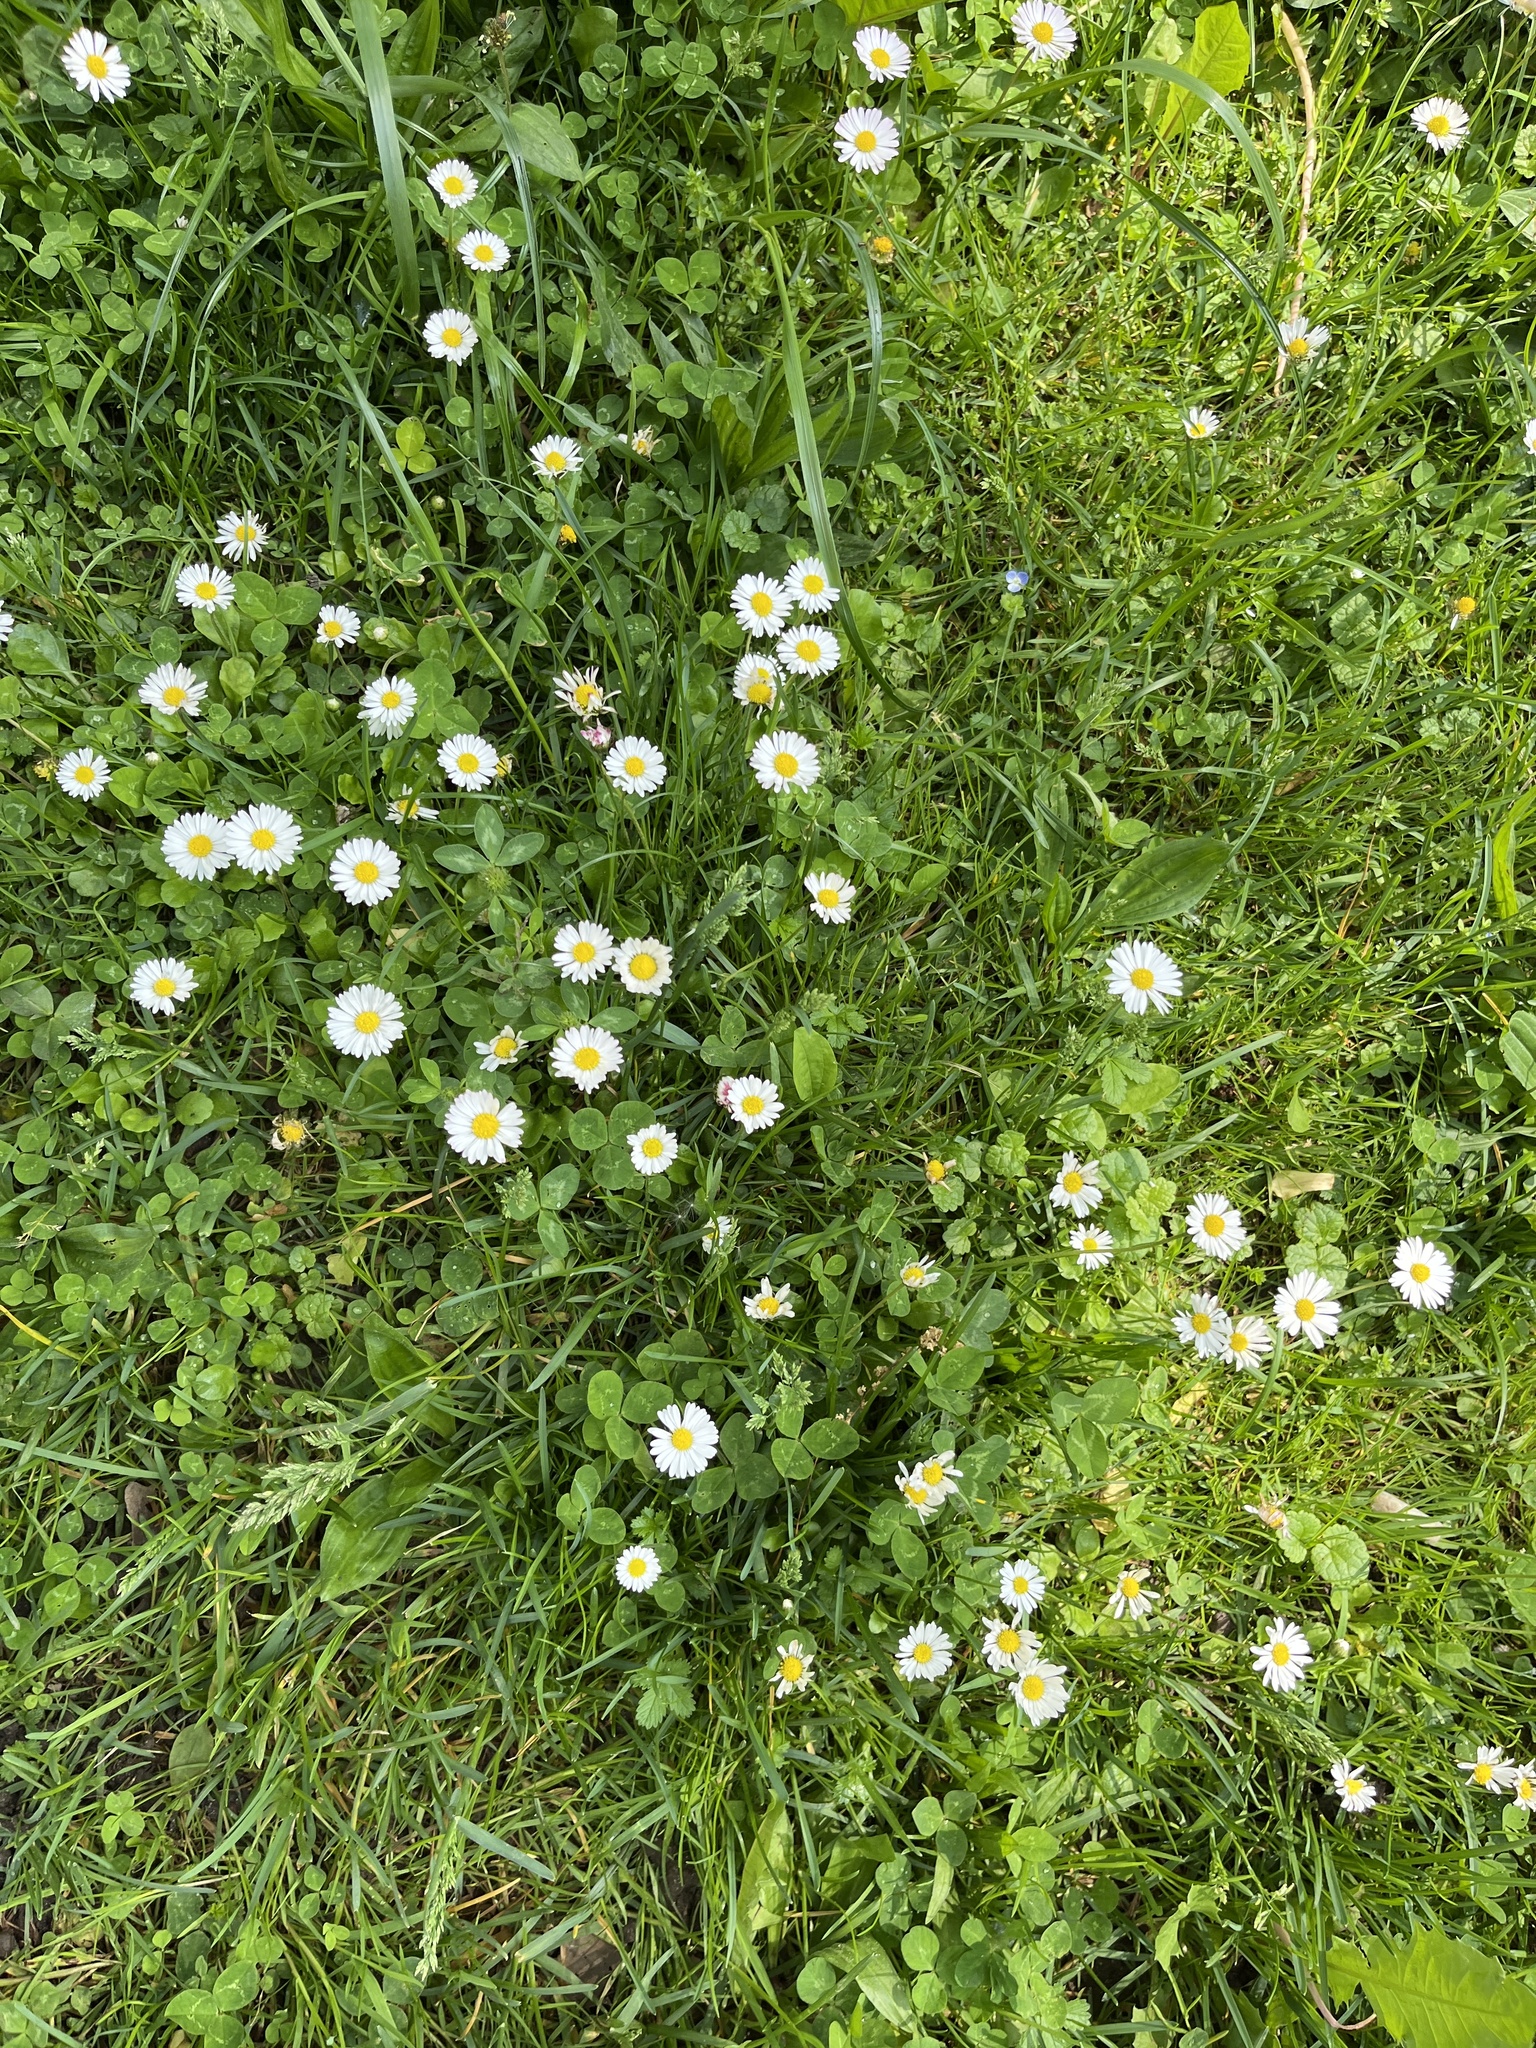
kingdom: Plantae
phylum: Tracheophyta
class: Magnoliopsida
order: Asterales
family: Asteraceae
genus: Bellis
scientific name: Bellis perennis
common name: Lawndaisy
